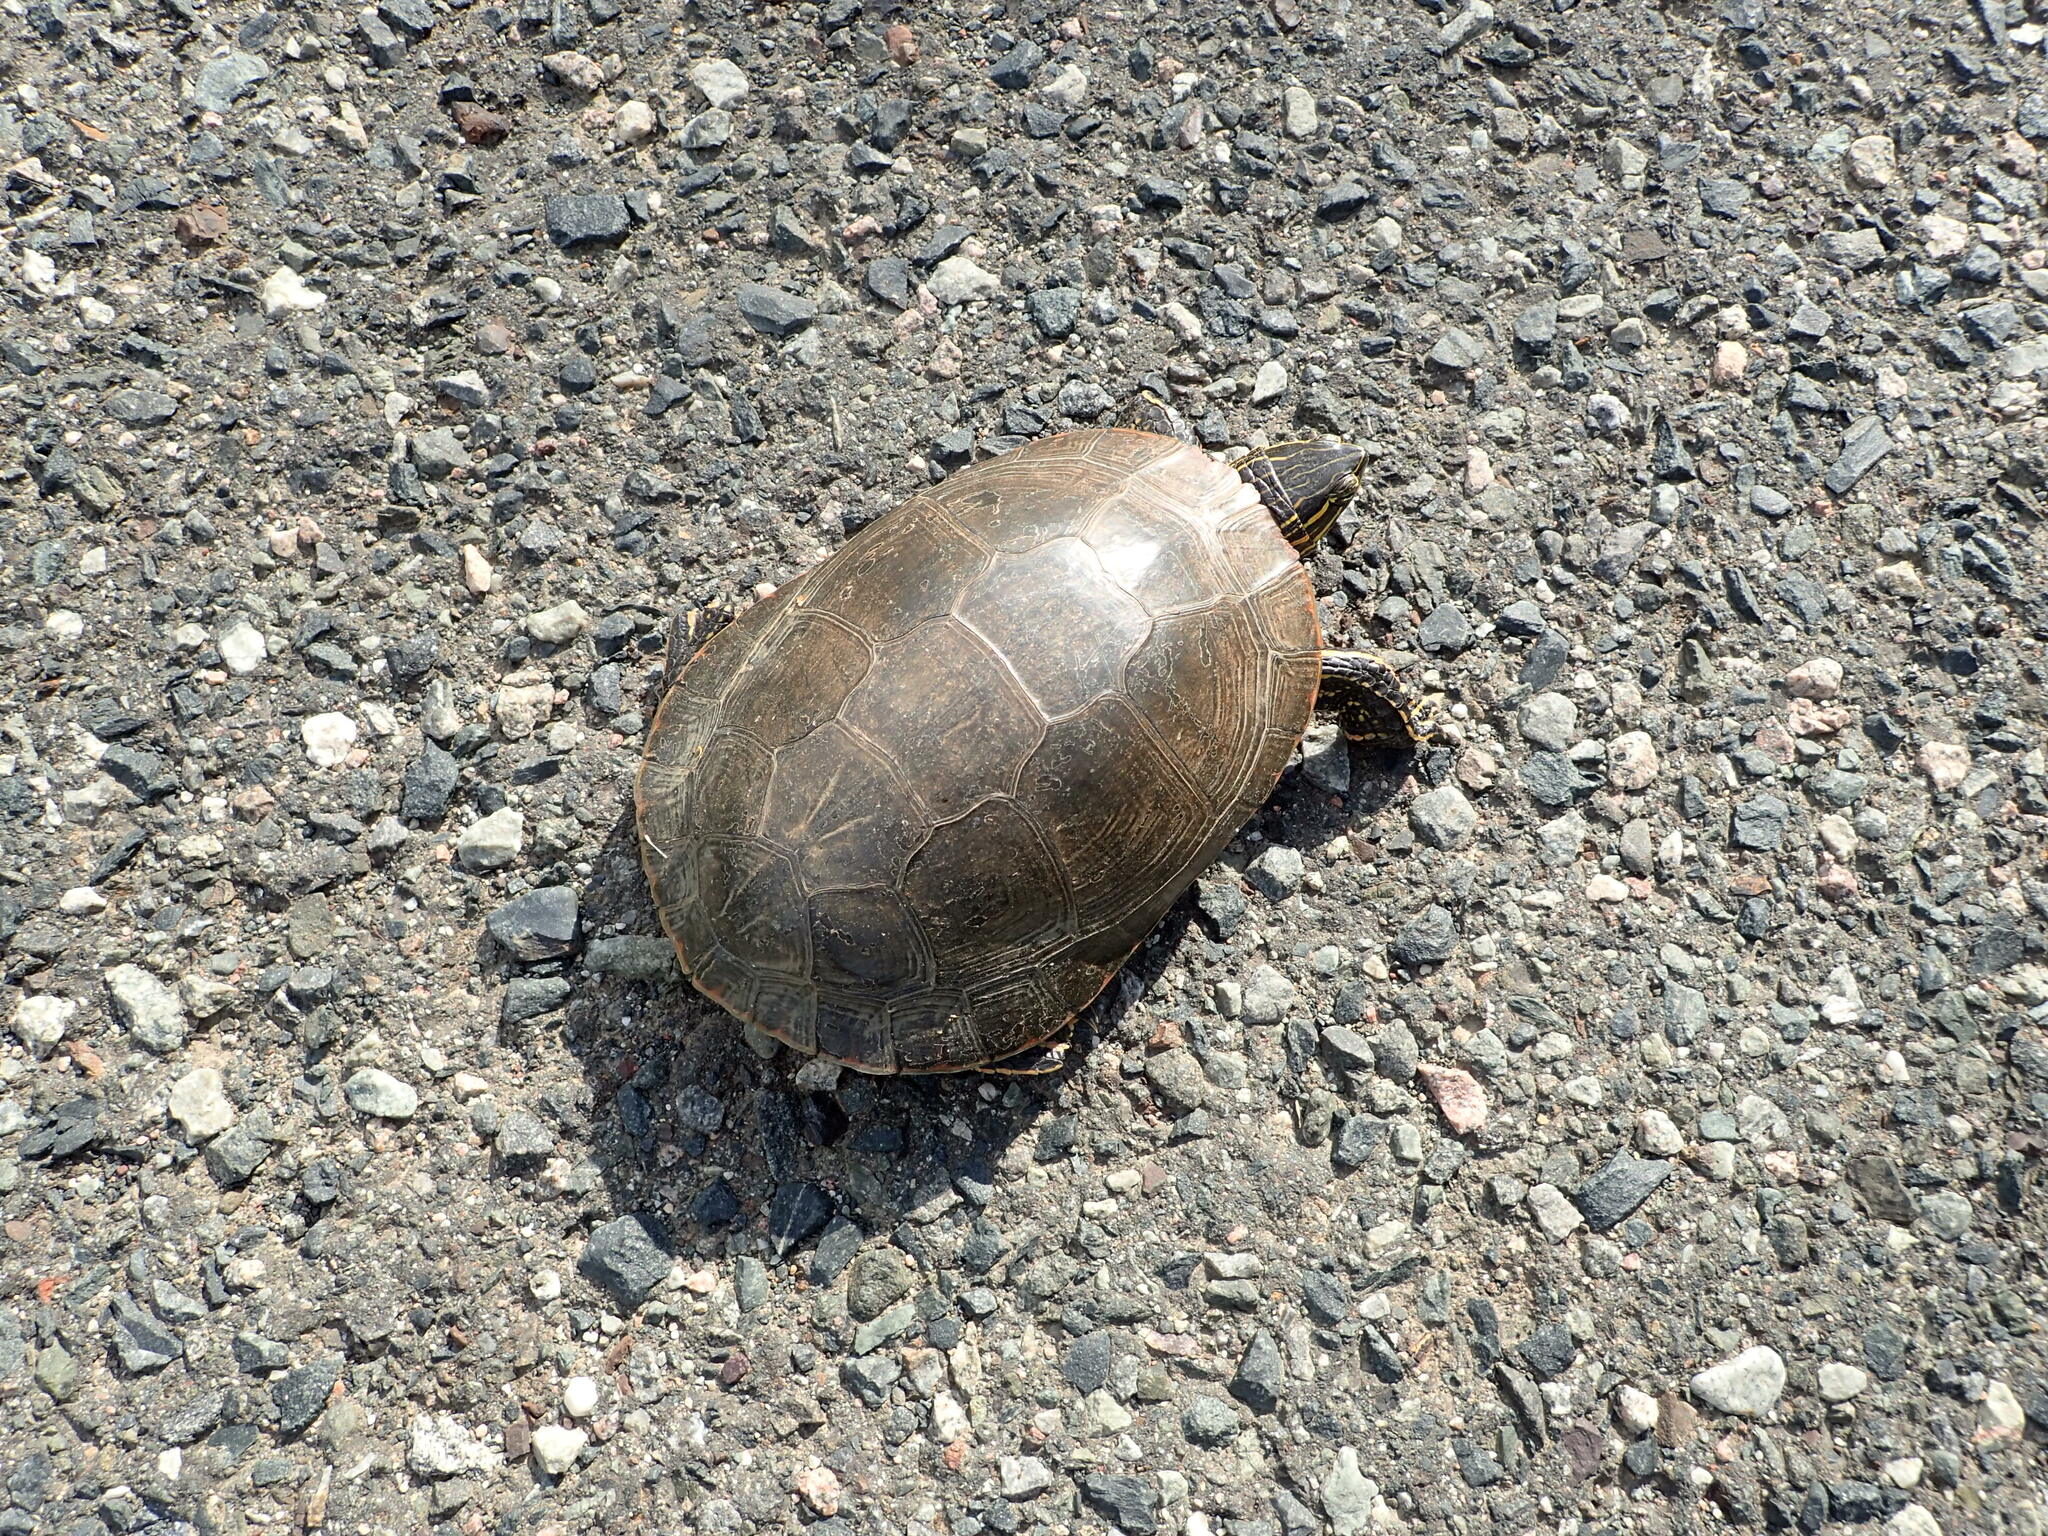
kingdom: Animalia
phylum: Chordata
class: Testudines
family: Emydidae
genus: Chrysemys
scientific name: Chrysemys picta
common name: Painted turtle
